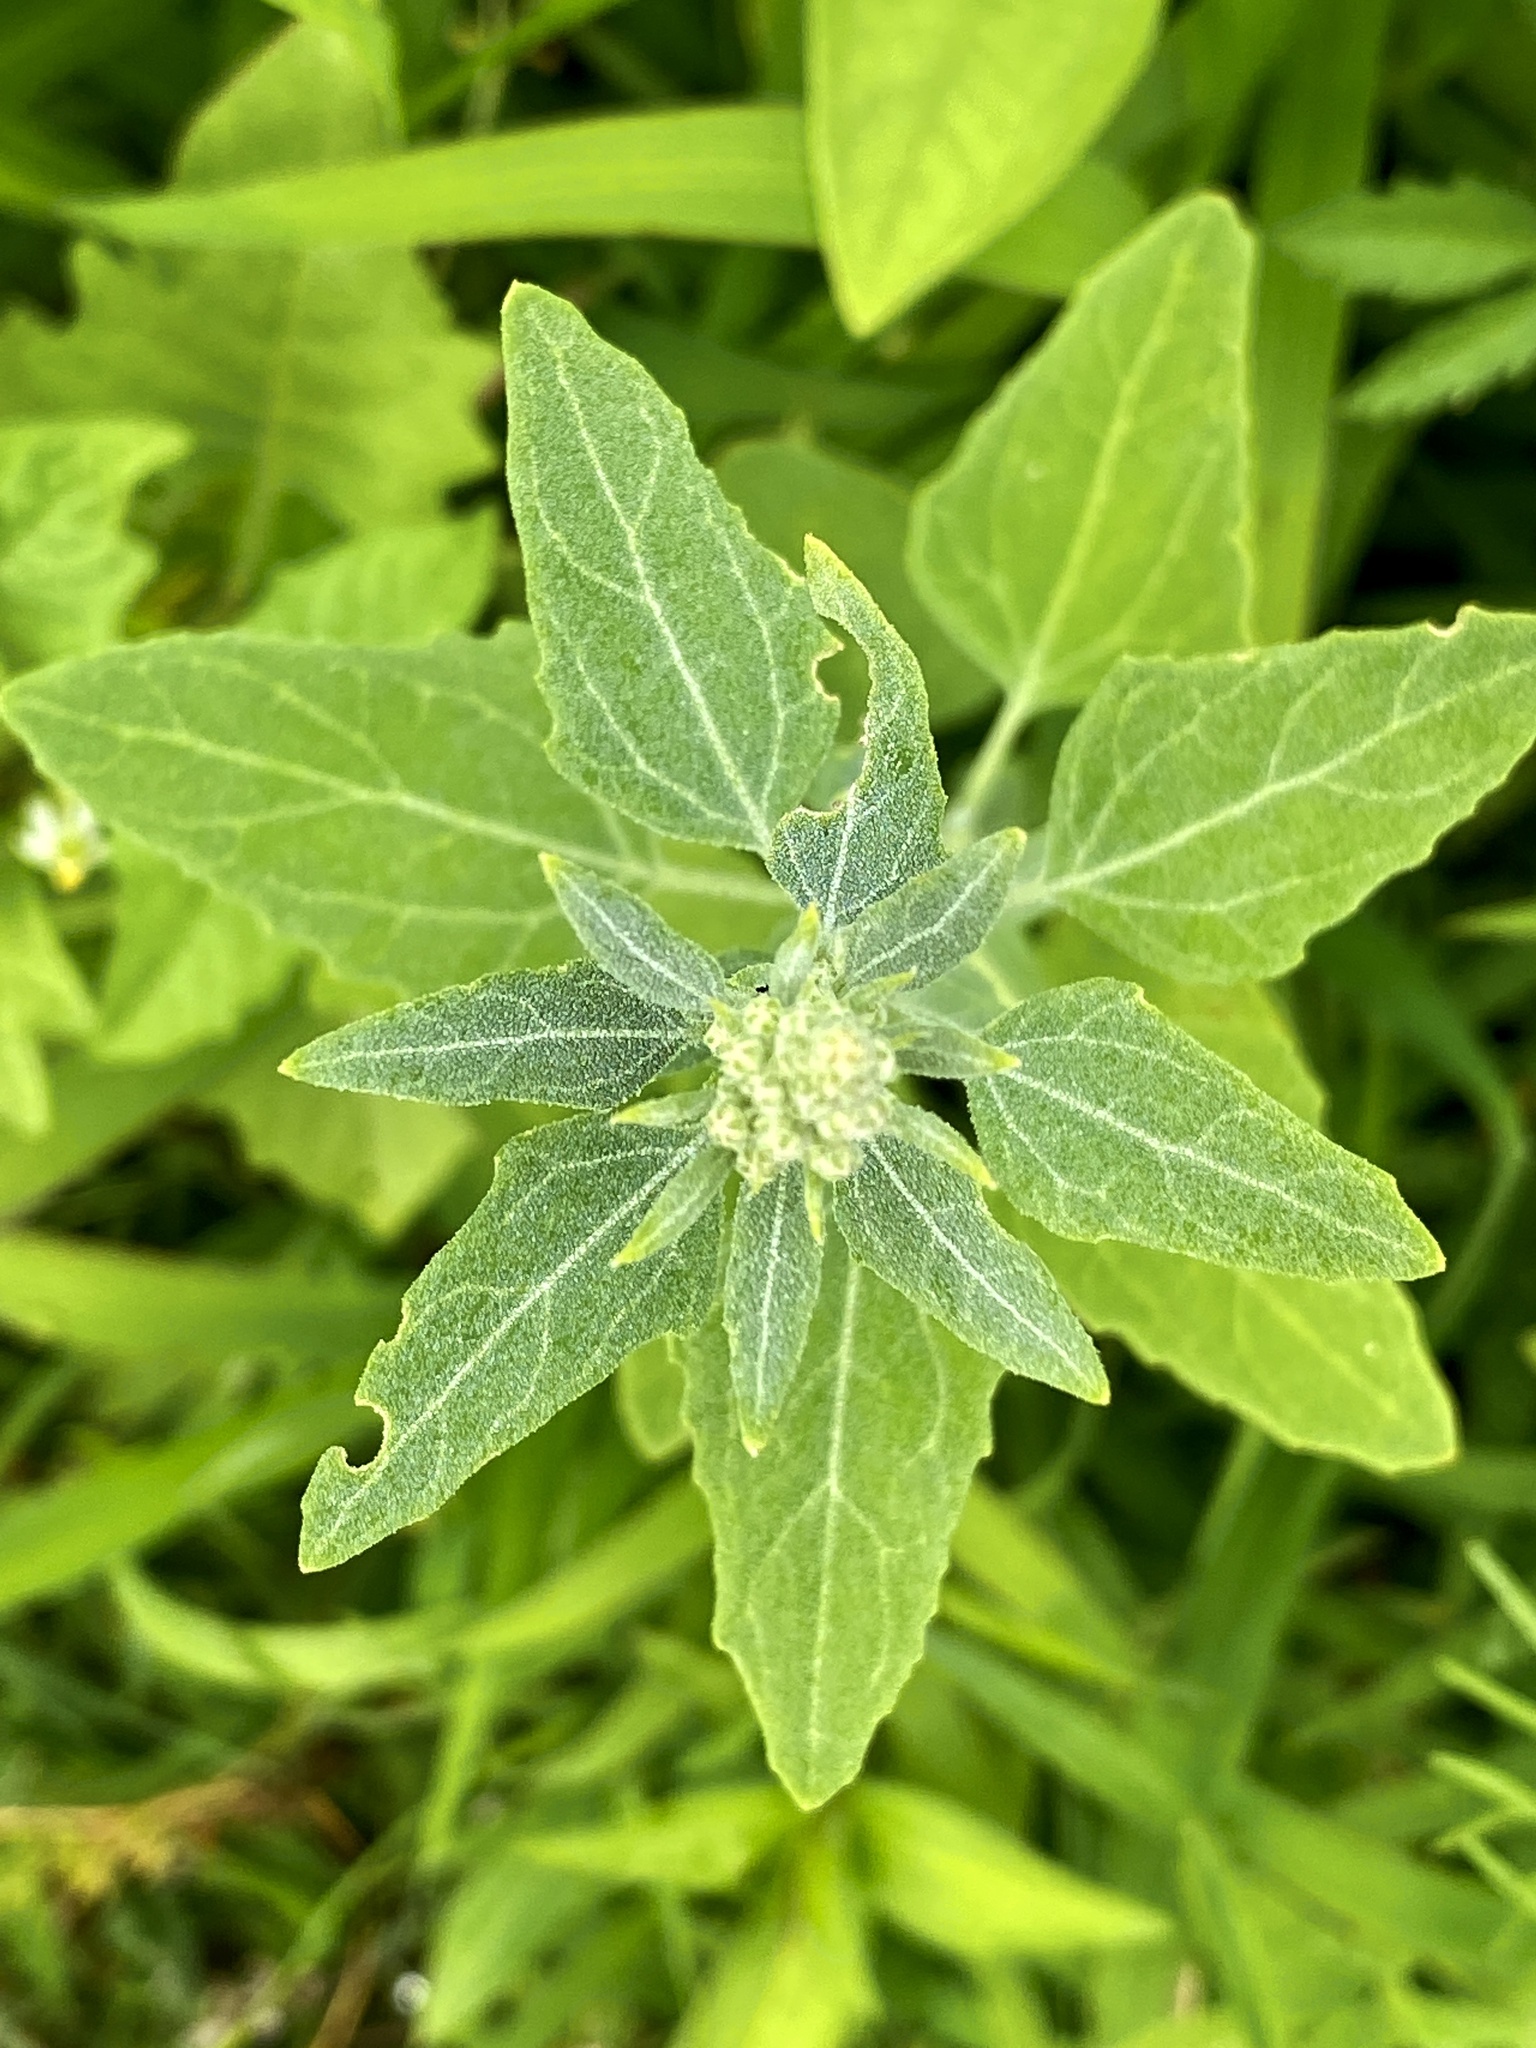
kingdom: Plantae
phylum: Tracheophyta
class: Magnoliopsida
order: Caryophyllales
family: Amaranthaceae
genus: Chenopodium
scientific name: Chenopodium album
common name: Fat-hen
